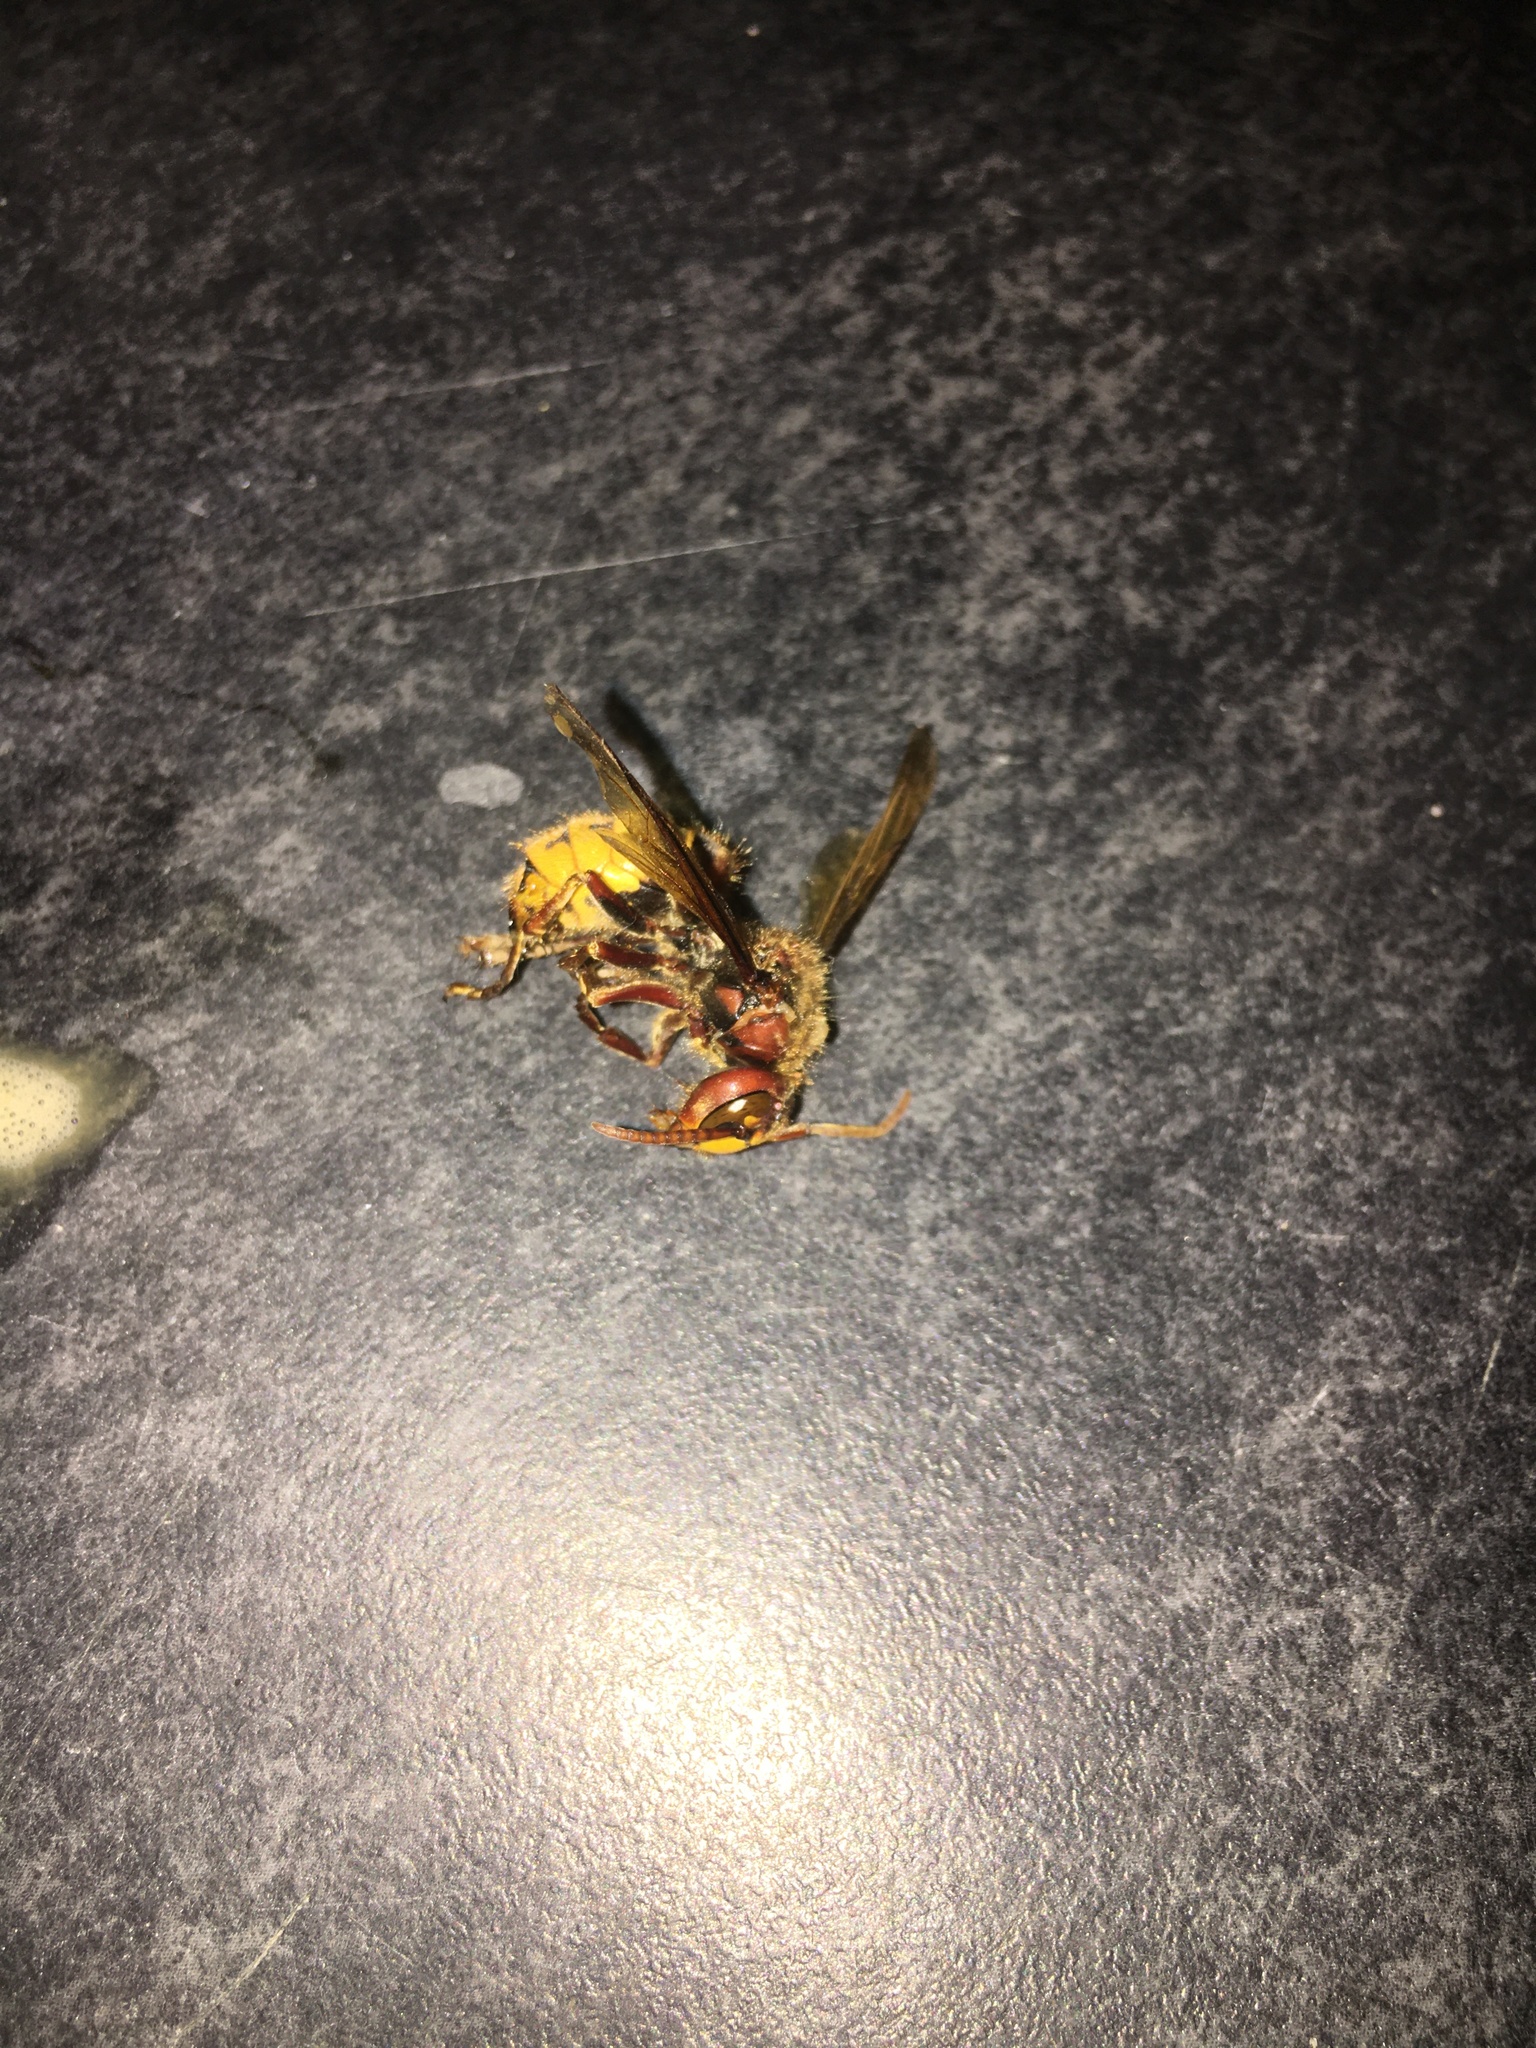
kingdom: Animalia
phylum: Arthropoda
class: Insecta
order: Hymenoptera
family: Vespidae
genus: Vespa
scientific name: Vespa crabro
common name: Hornet
